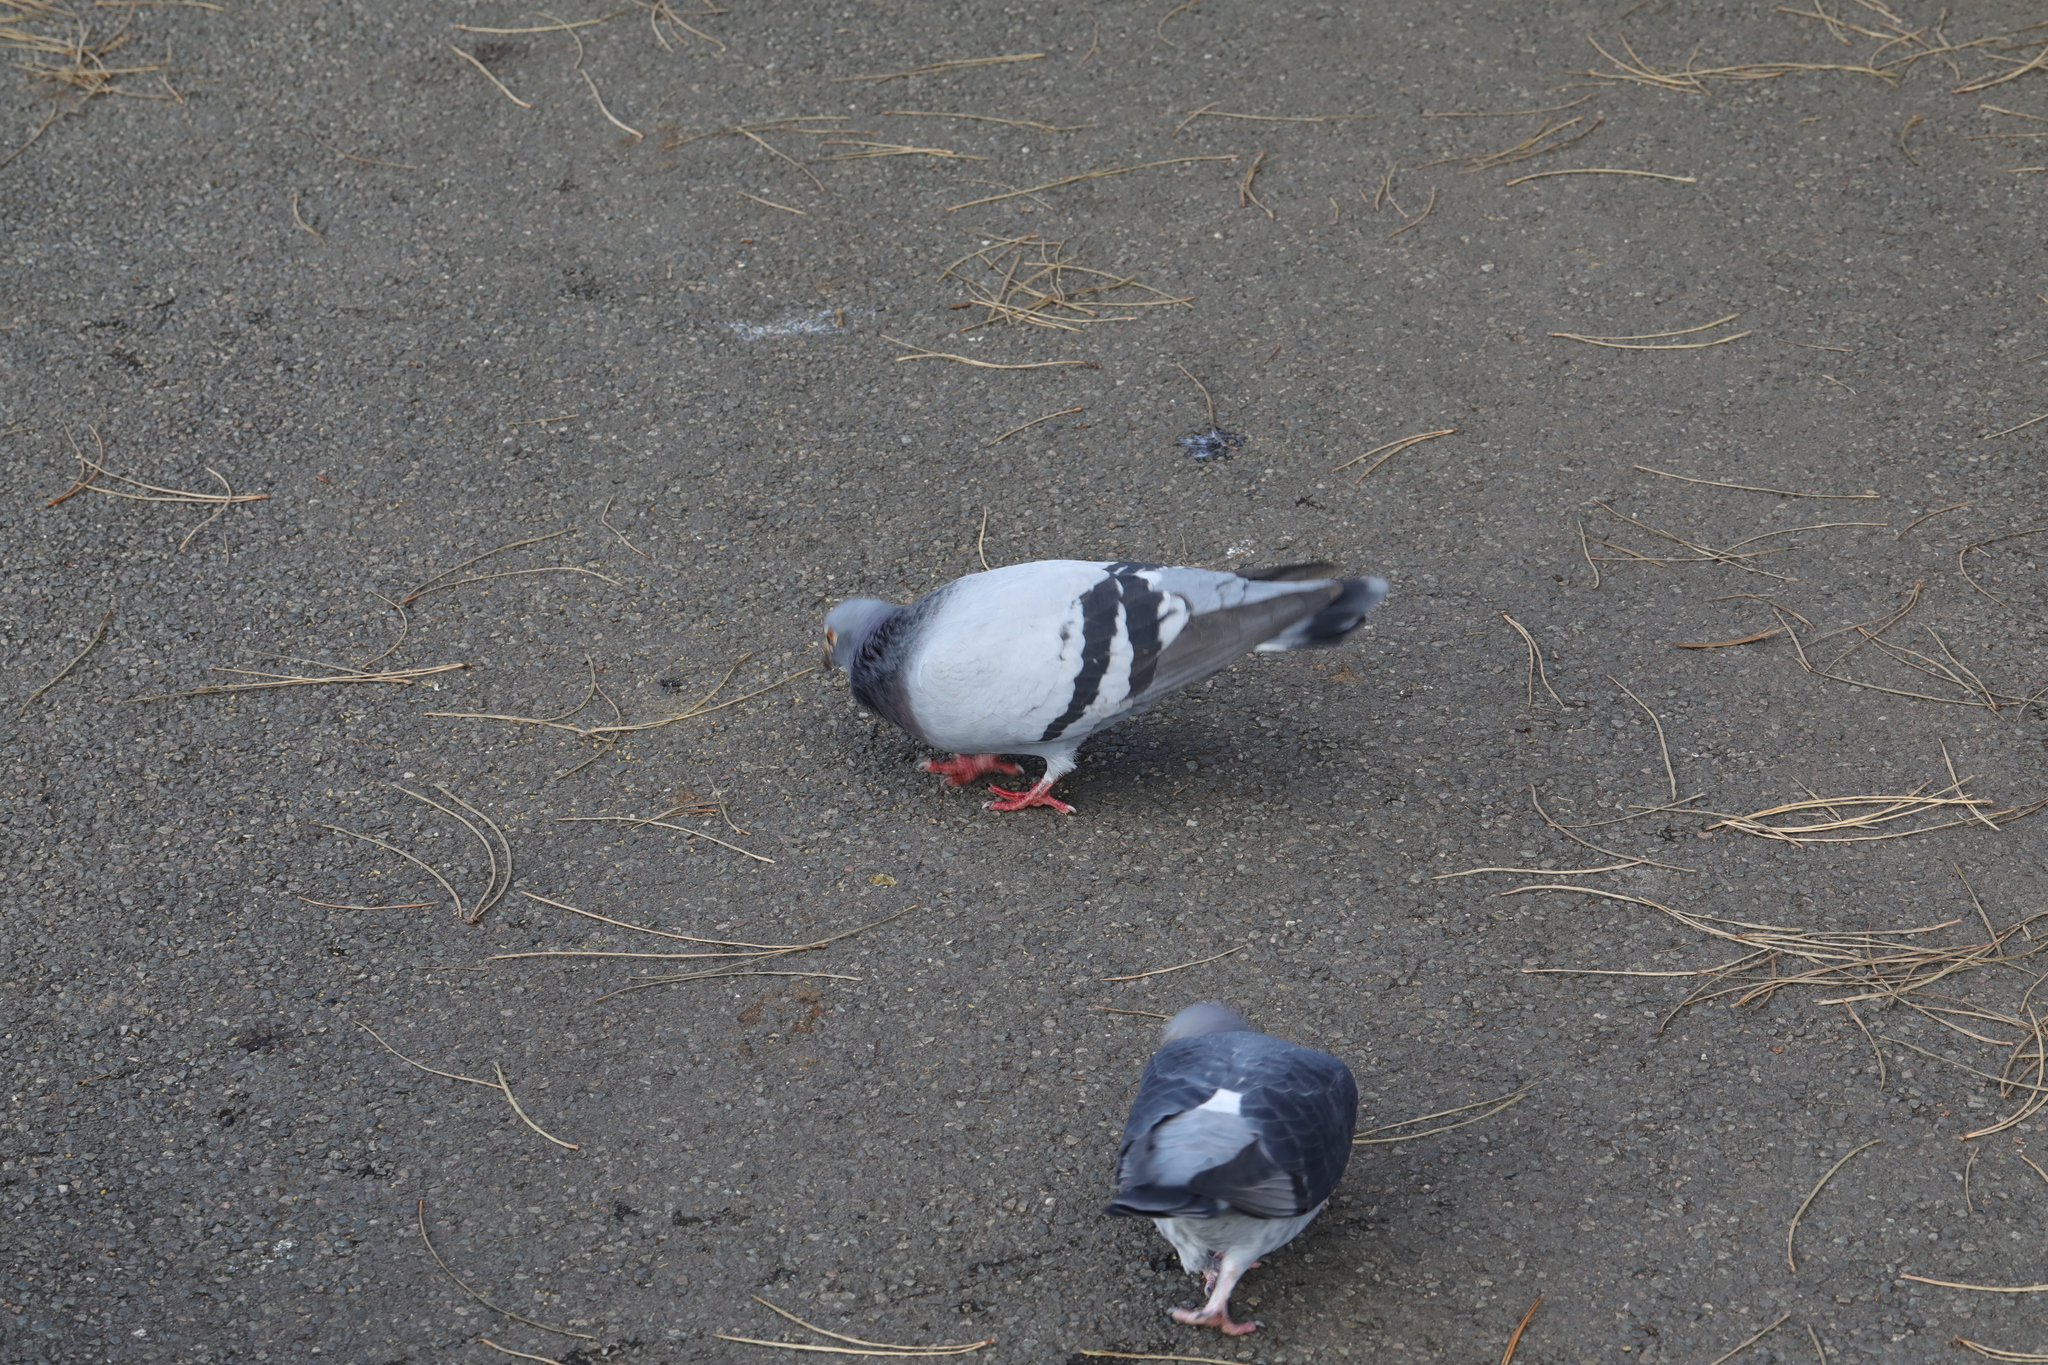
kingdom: Animalia
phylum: Chordata
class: Aves
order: Columbiformes
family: Columbidae
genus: Columba
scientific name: Columba livia
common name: Rock pigeon
